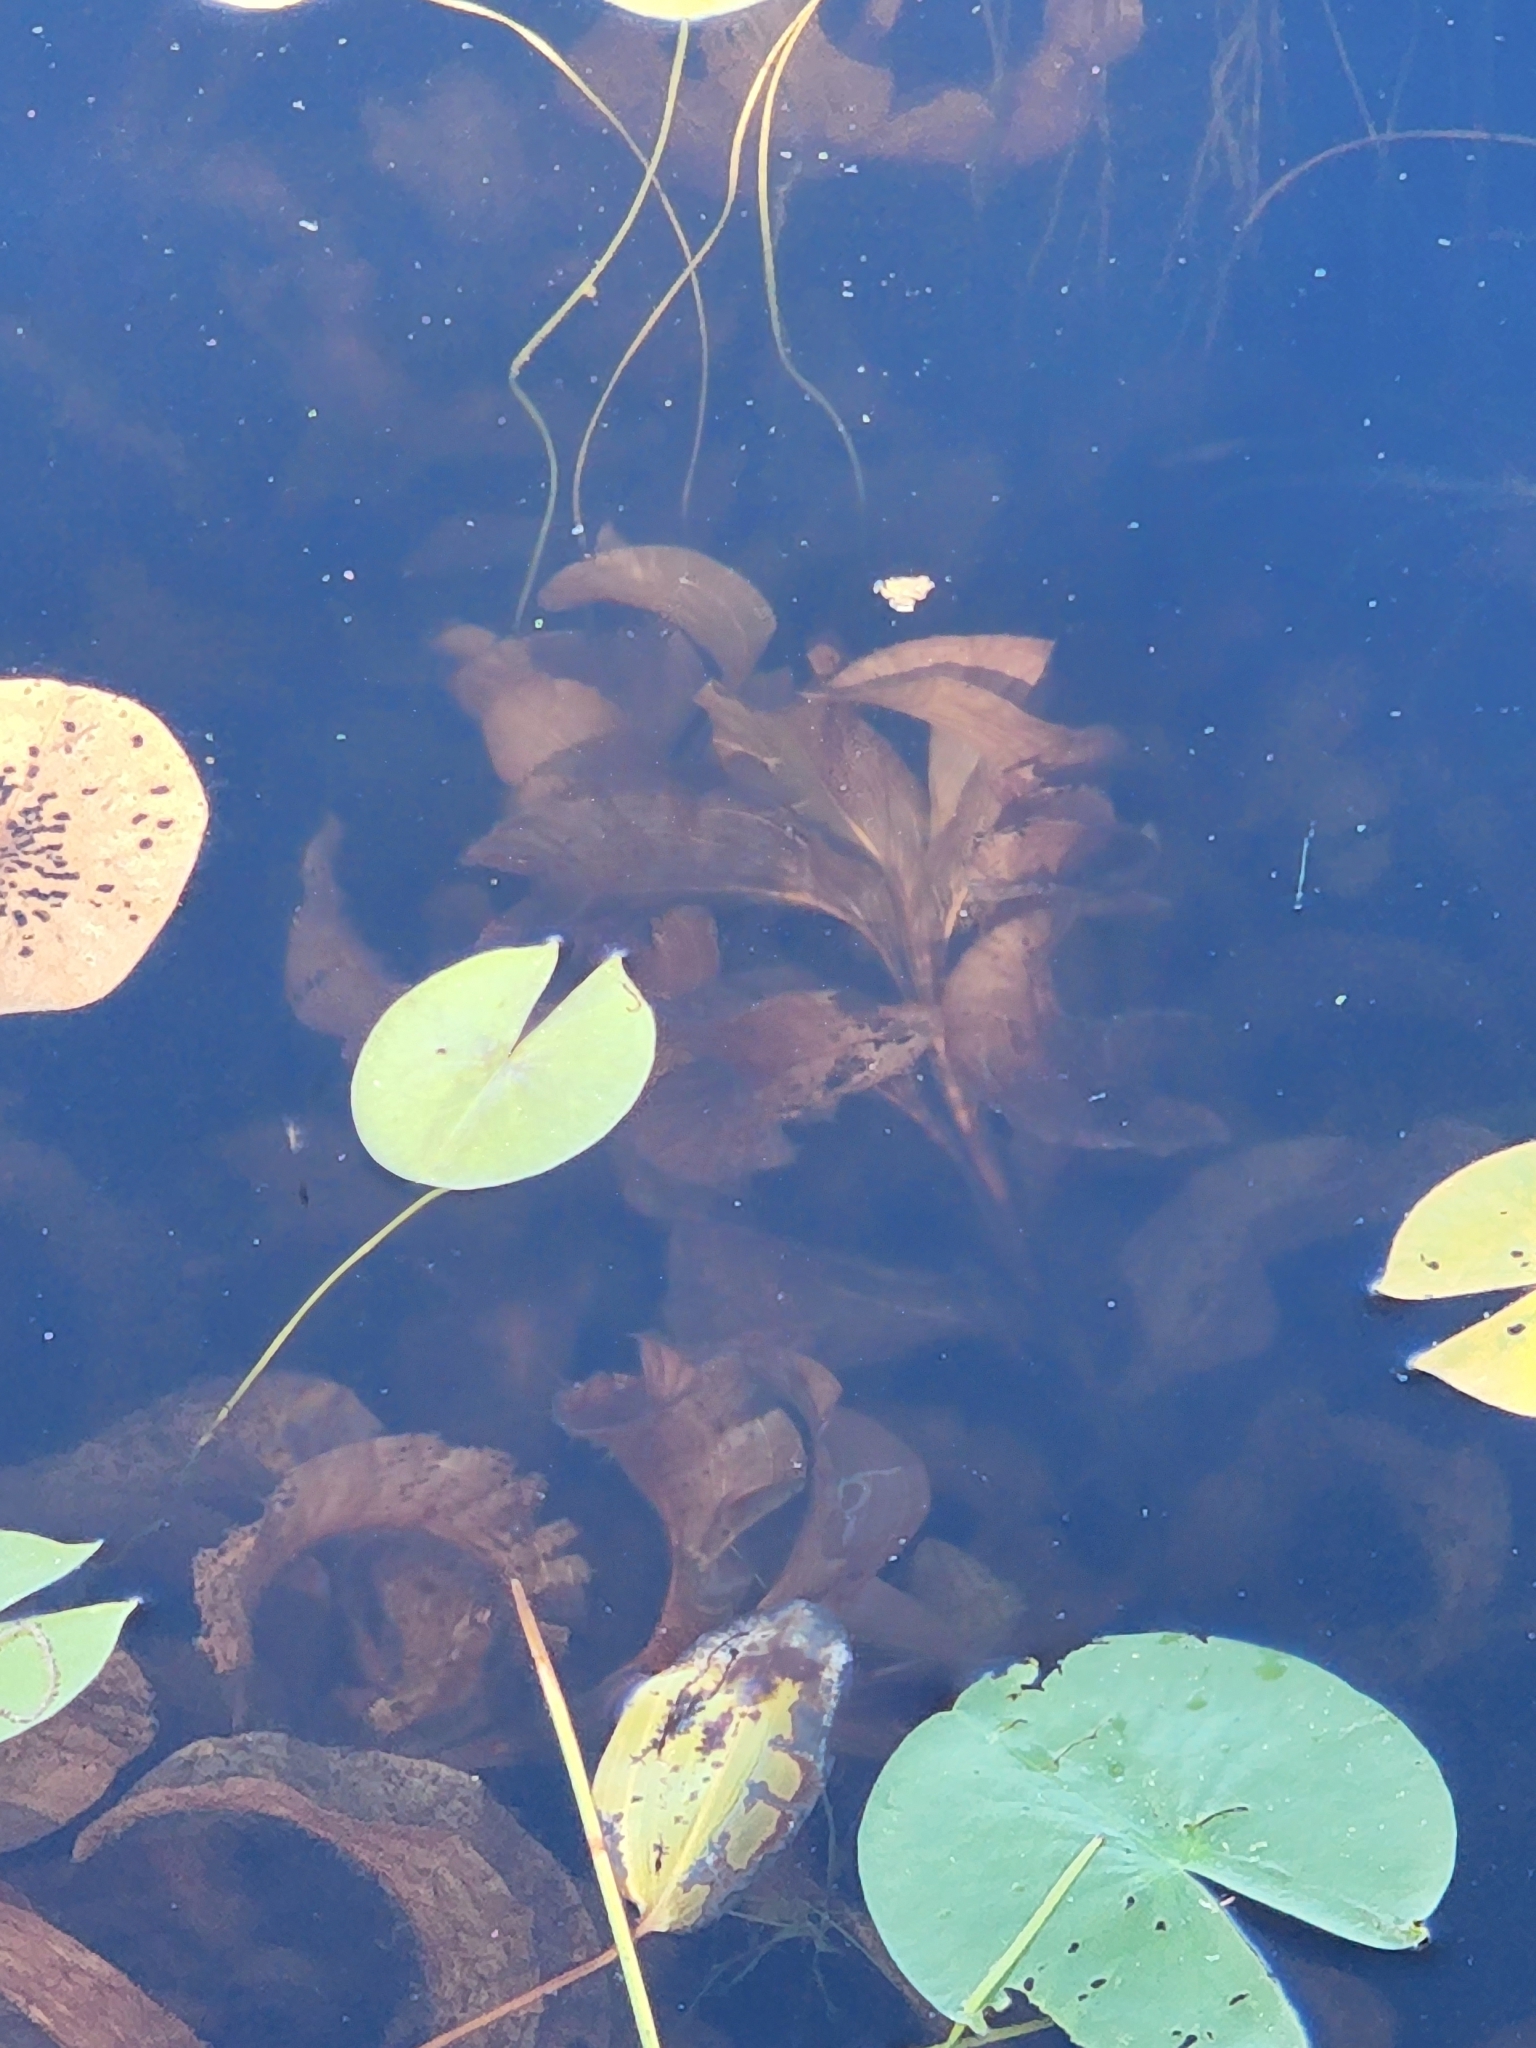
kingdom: Plantae
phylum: Tracheophyta
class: Liliopsida
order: Alismatales
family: Potamogetonaceae
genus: Potamogeton
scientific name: Potamogeton amplifolius
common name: Broad-leaved pondweed
